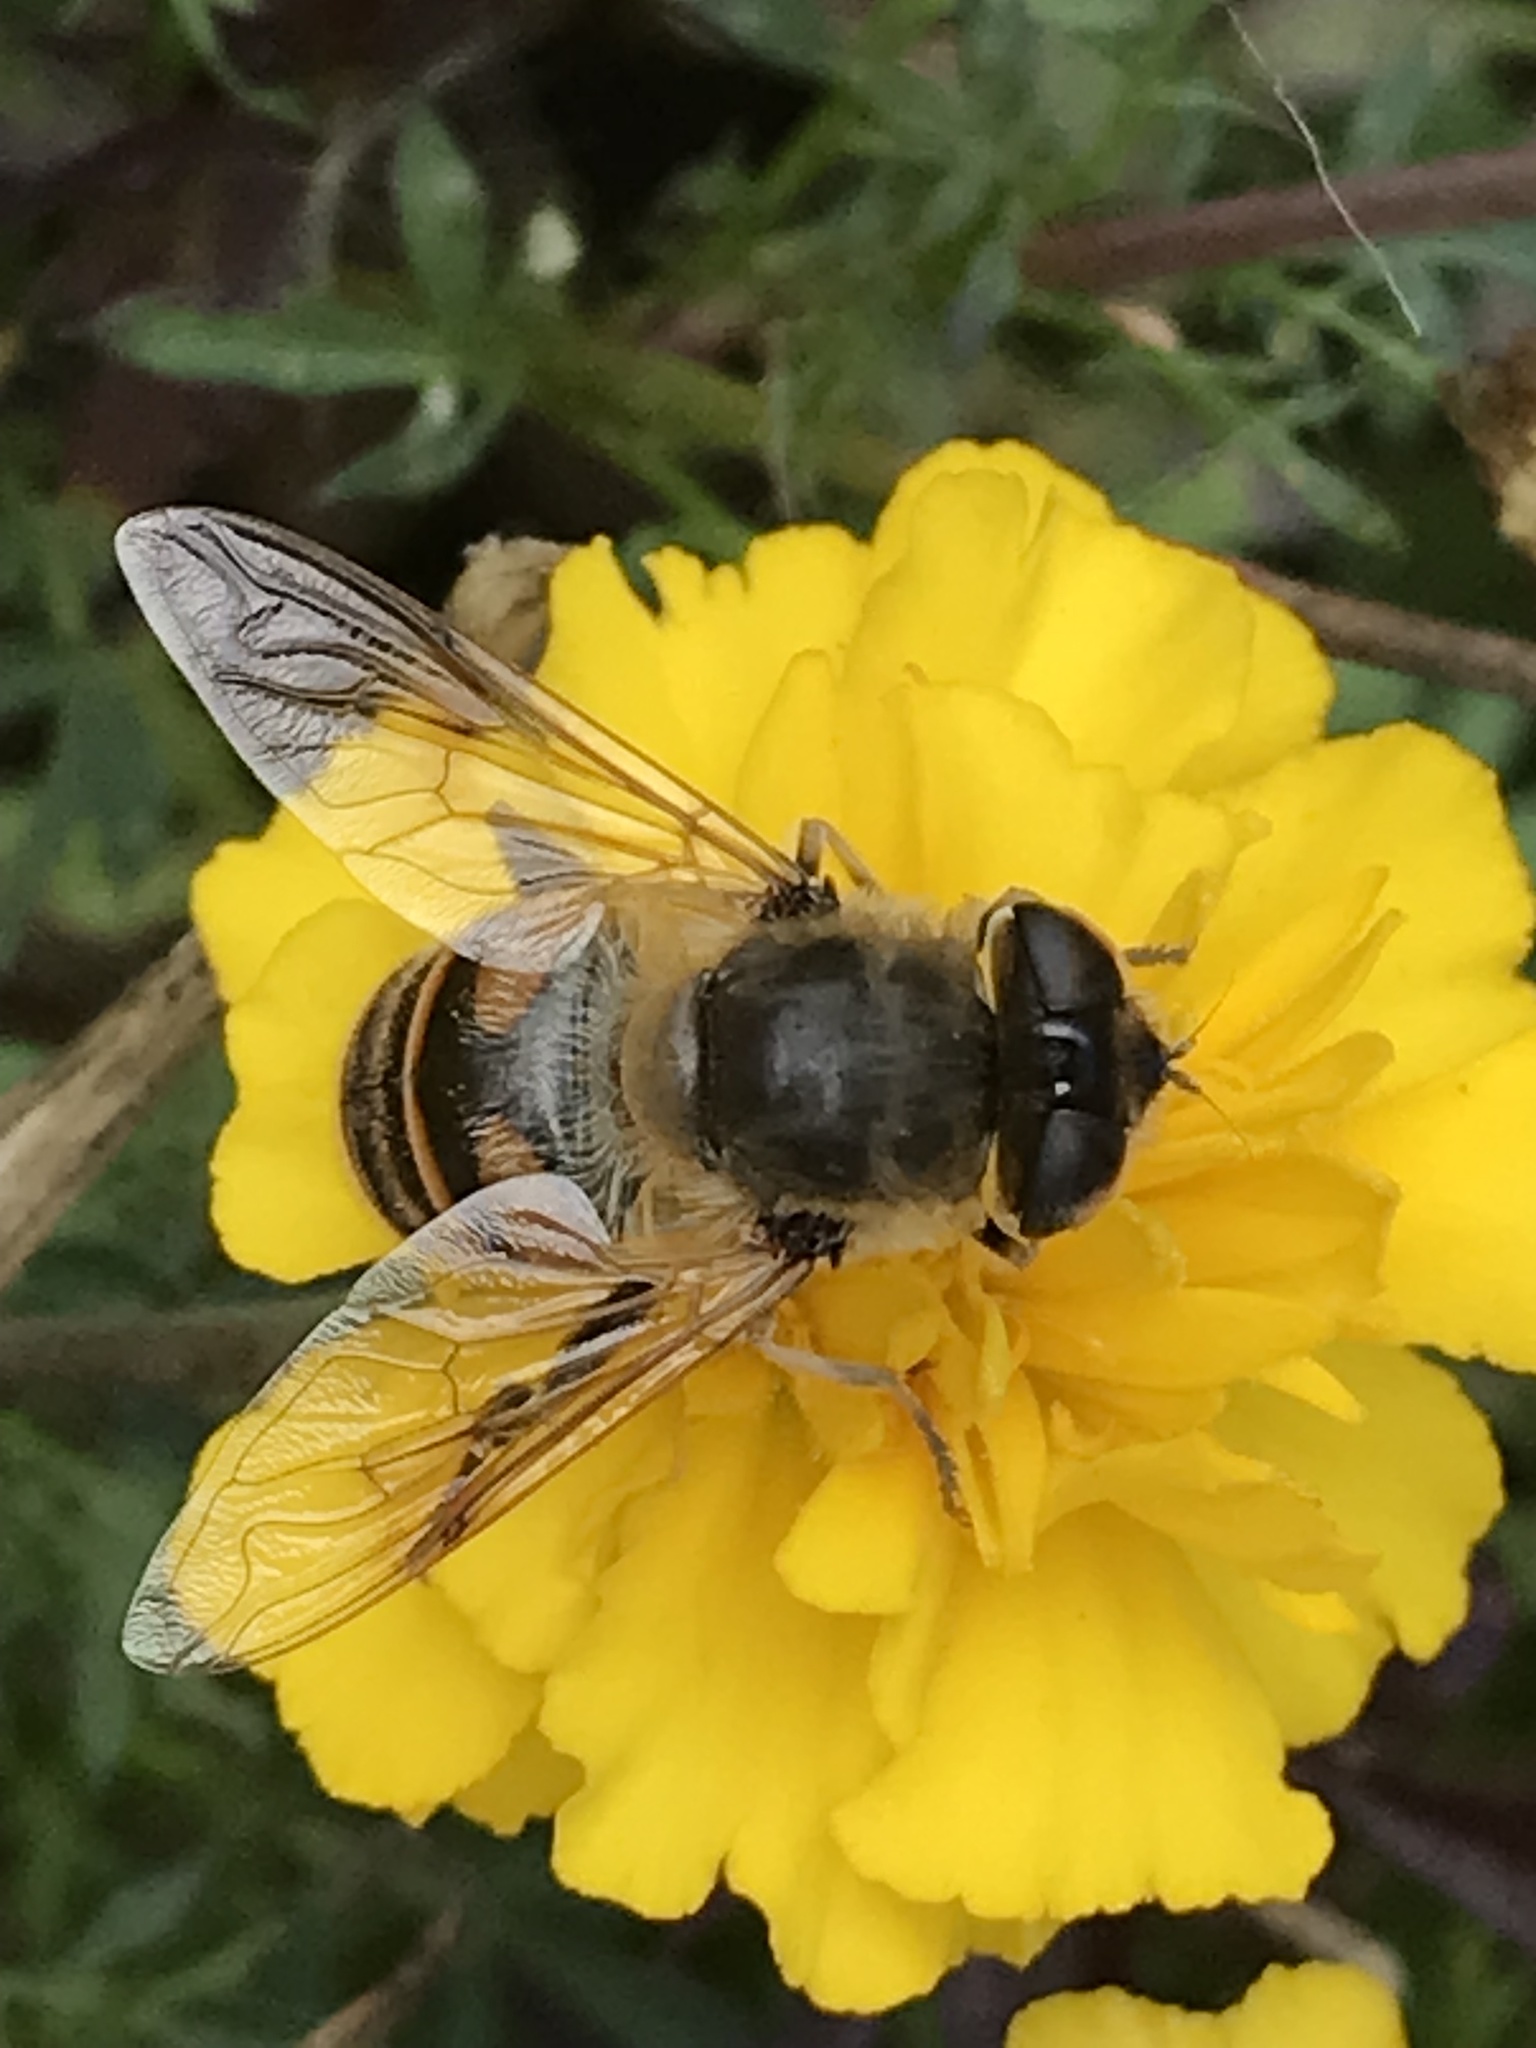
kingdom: Animalia
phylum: Arthropoda
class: Insecta
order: Diptera
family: Syrphidae
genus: Eristalis
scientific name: Eristalis tenax
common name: Drone fly
